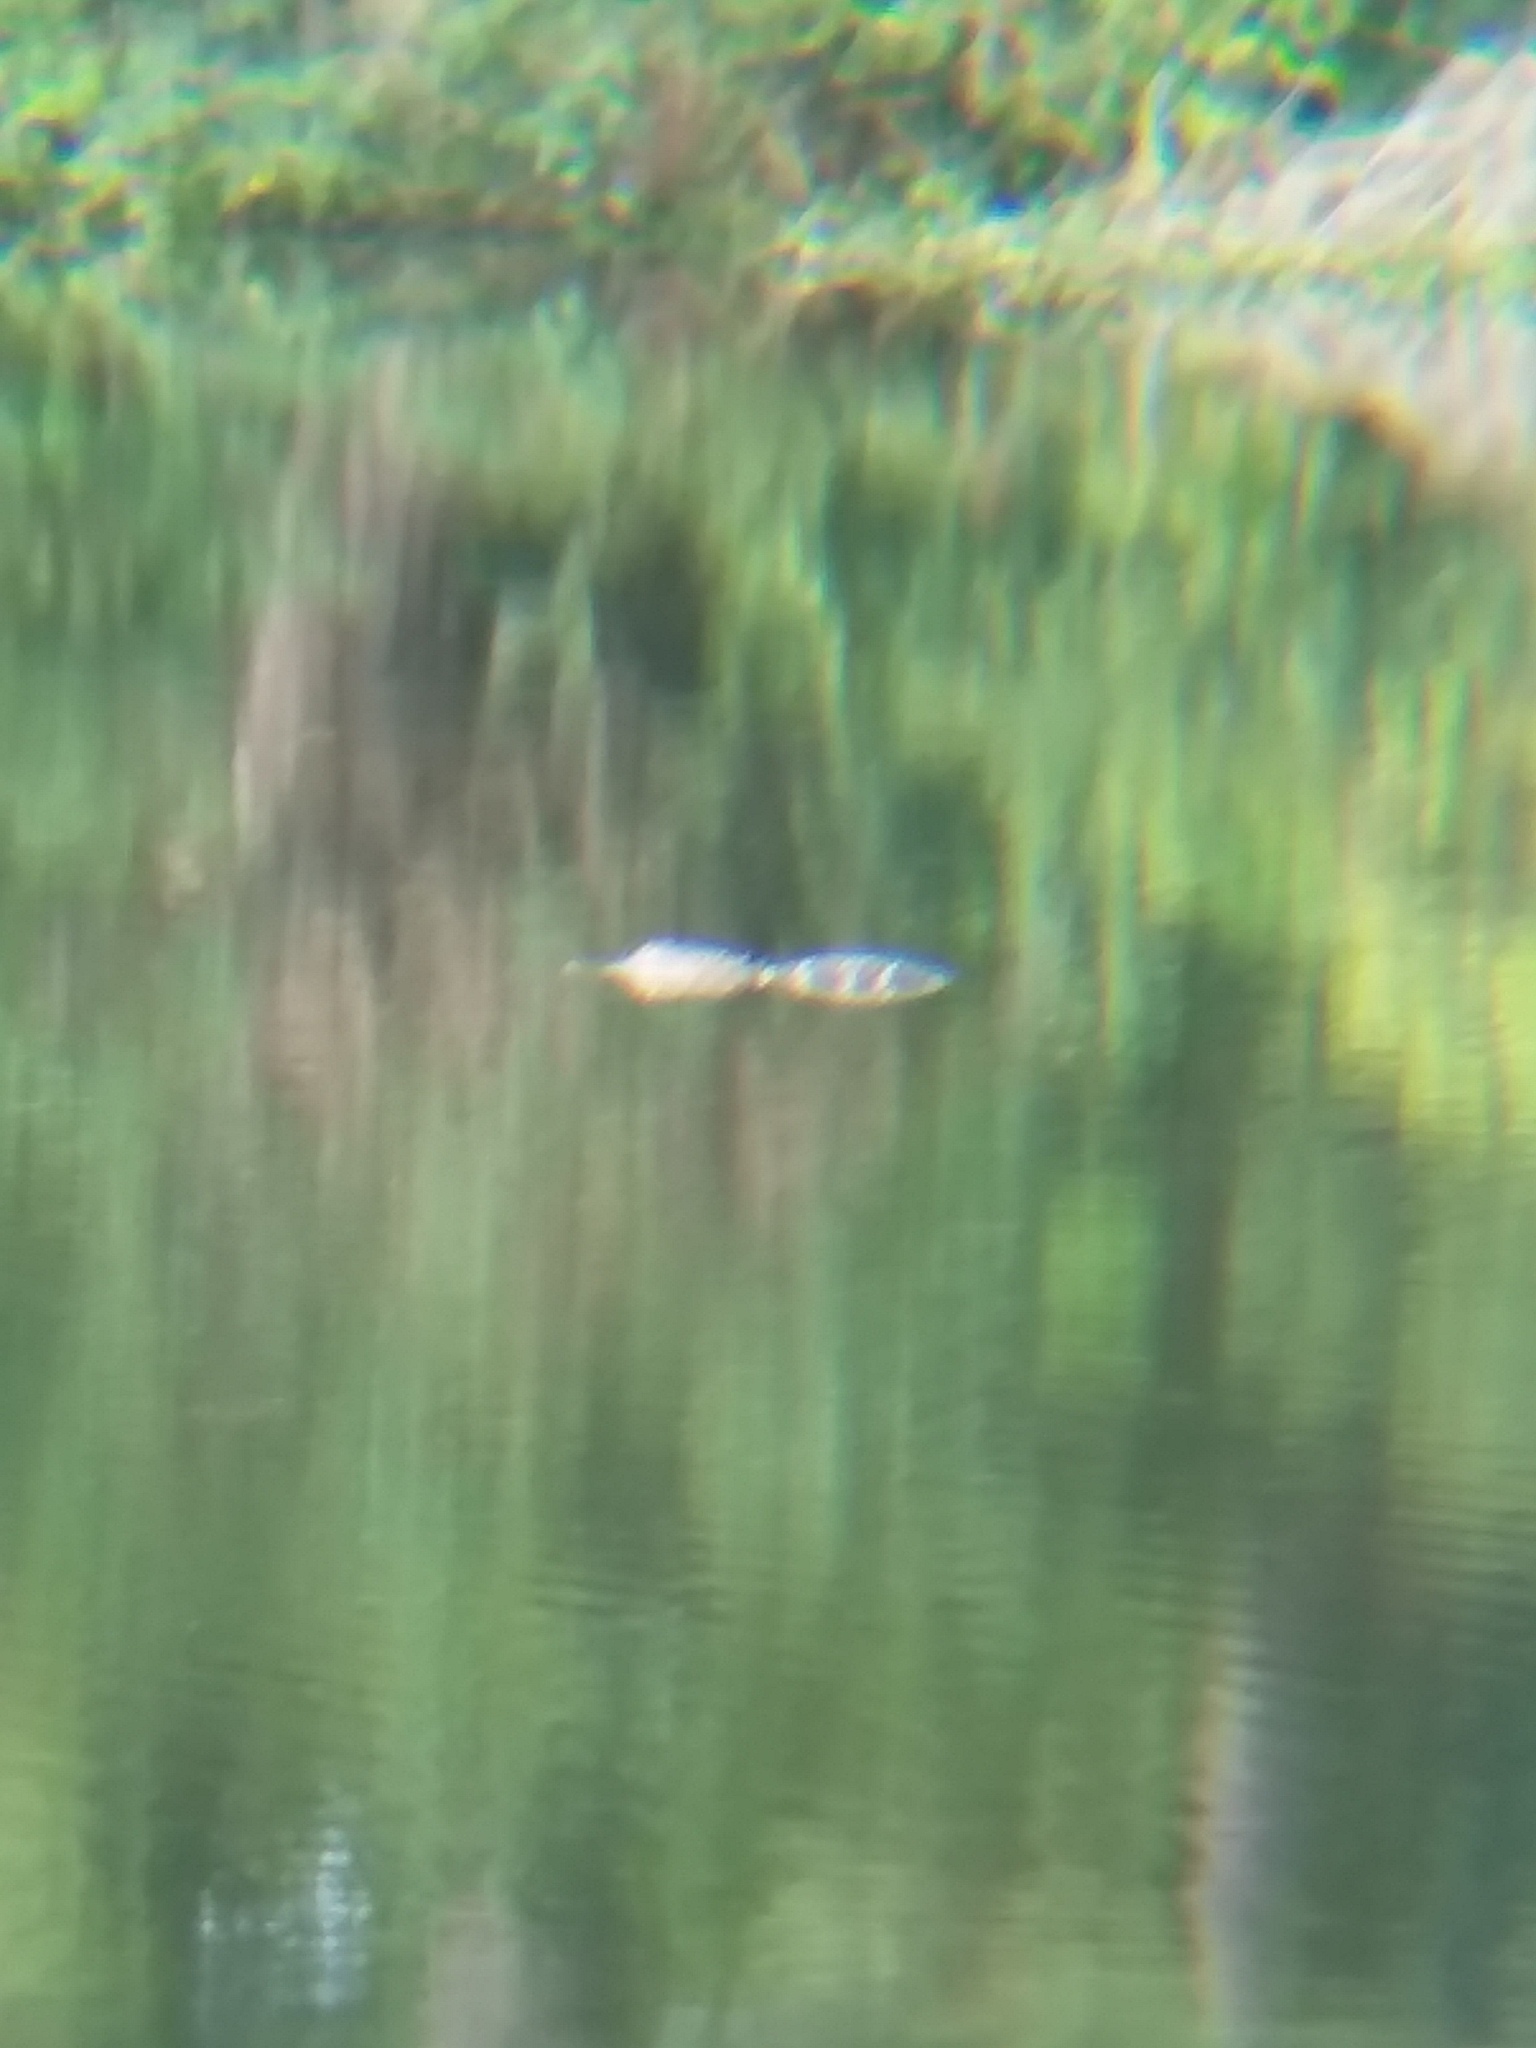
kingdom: Animalia
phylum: Chordata
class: Crocodylia
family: Alligatoridae
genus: Alligator
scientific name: Alligator mississippiensis
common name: American alligator
